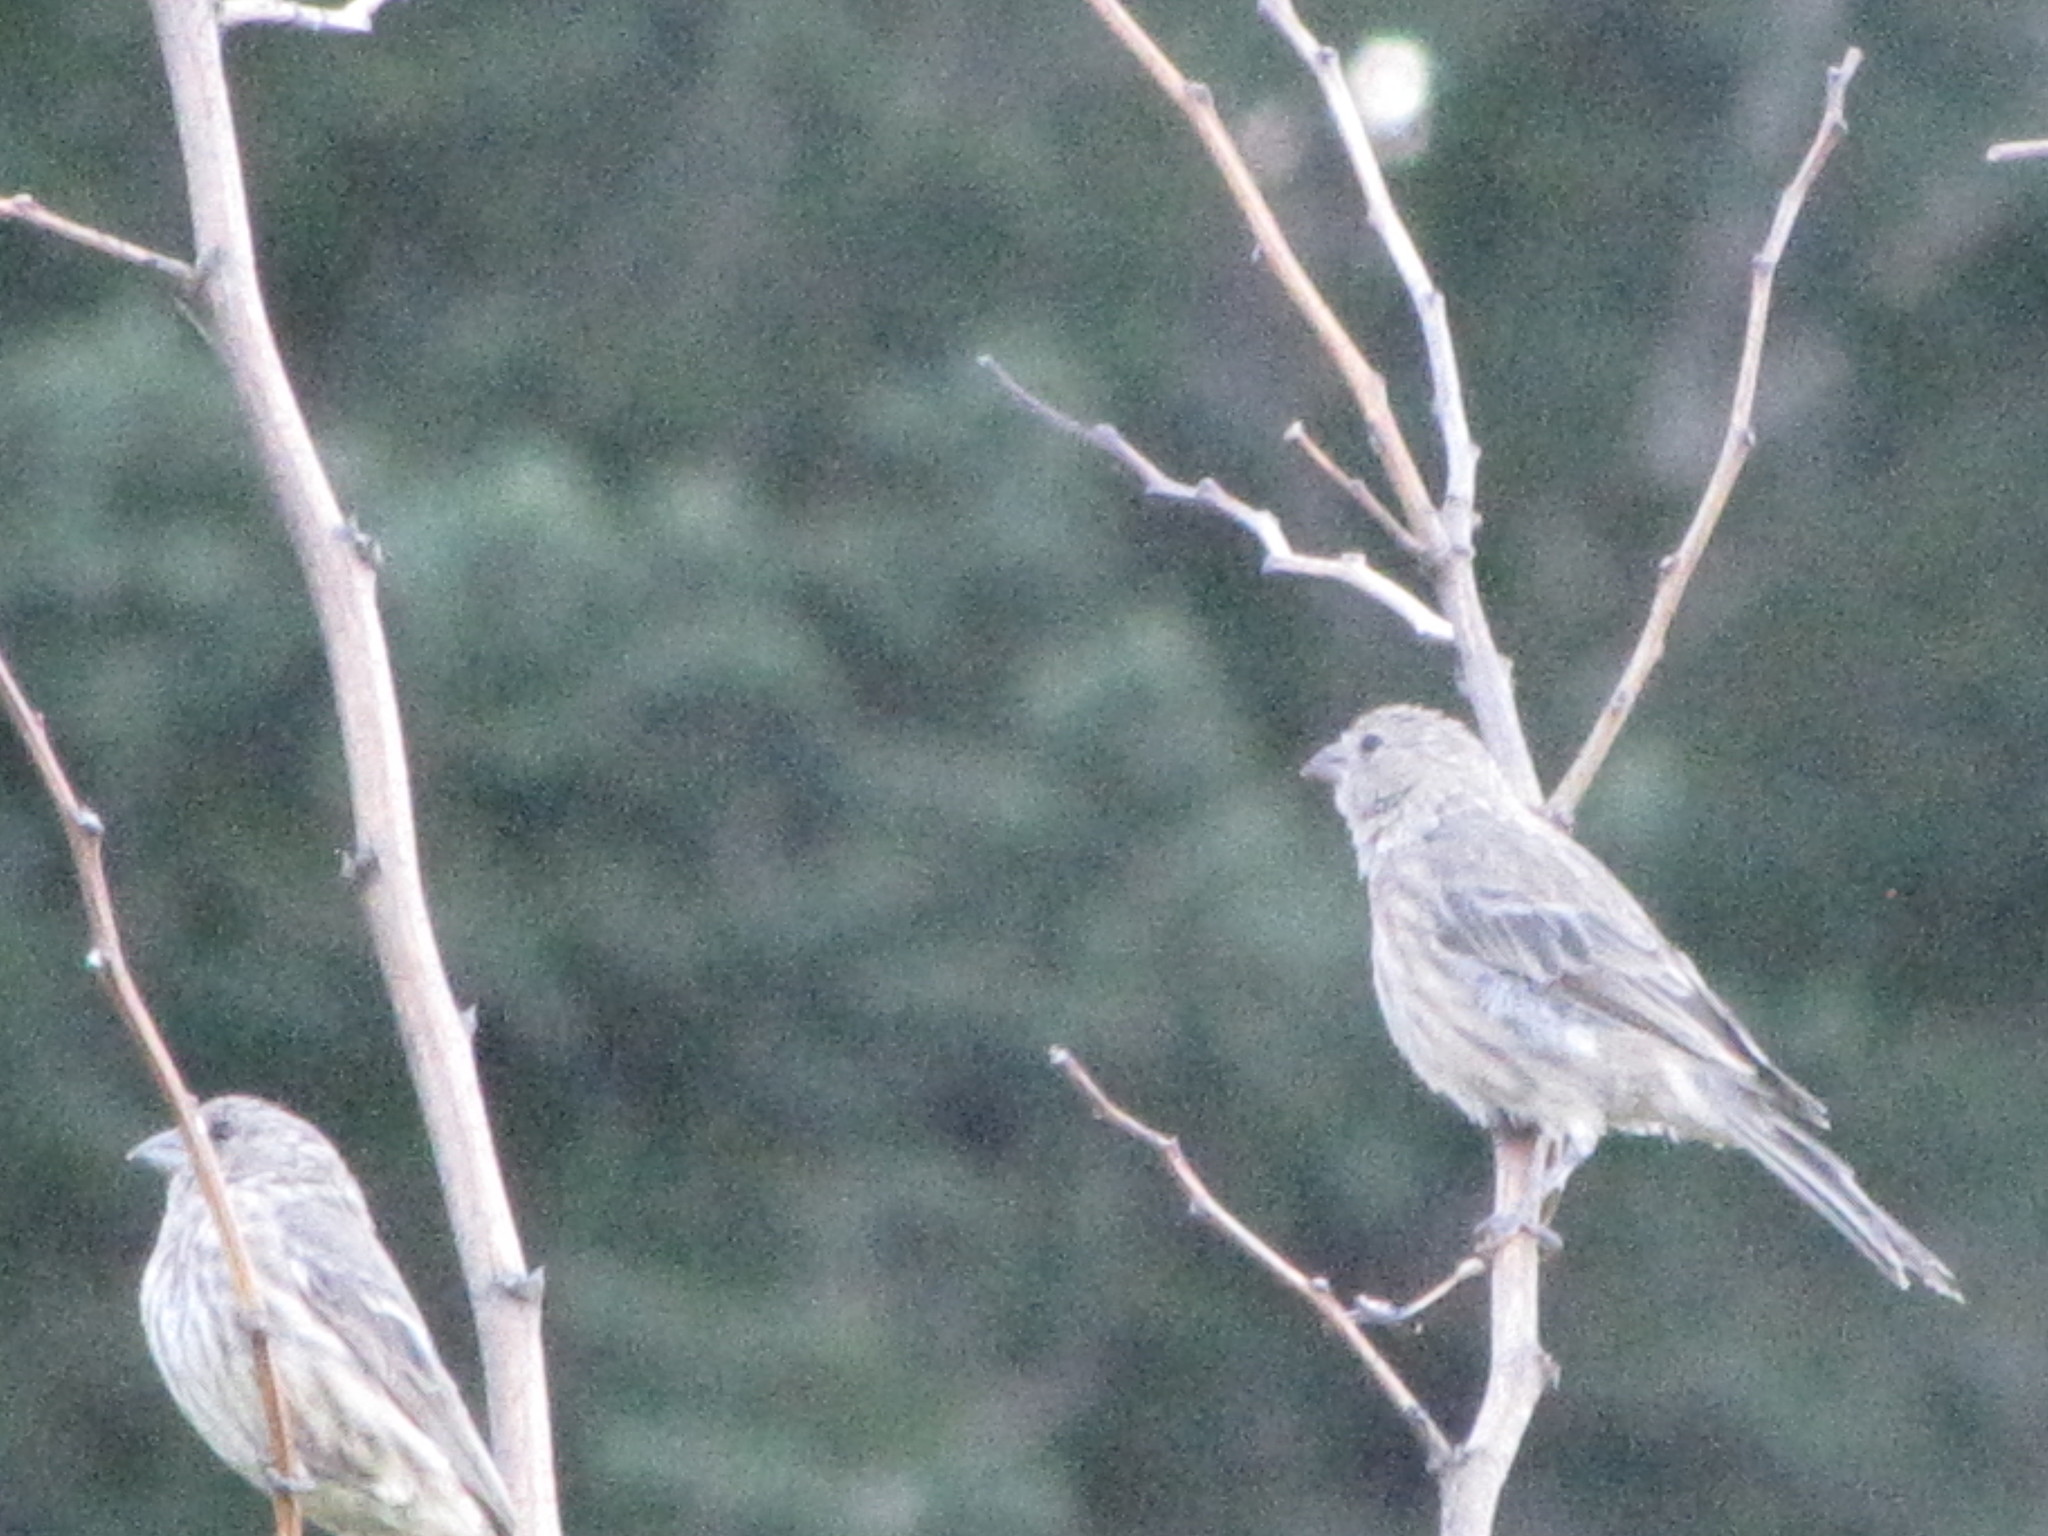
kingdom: Animalia
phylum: Chordata
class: Aves
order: Passeriformes
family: Fringillidae
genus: Haemorhous
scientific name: Haemorhous mexicanus
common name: House finch
